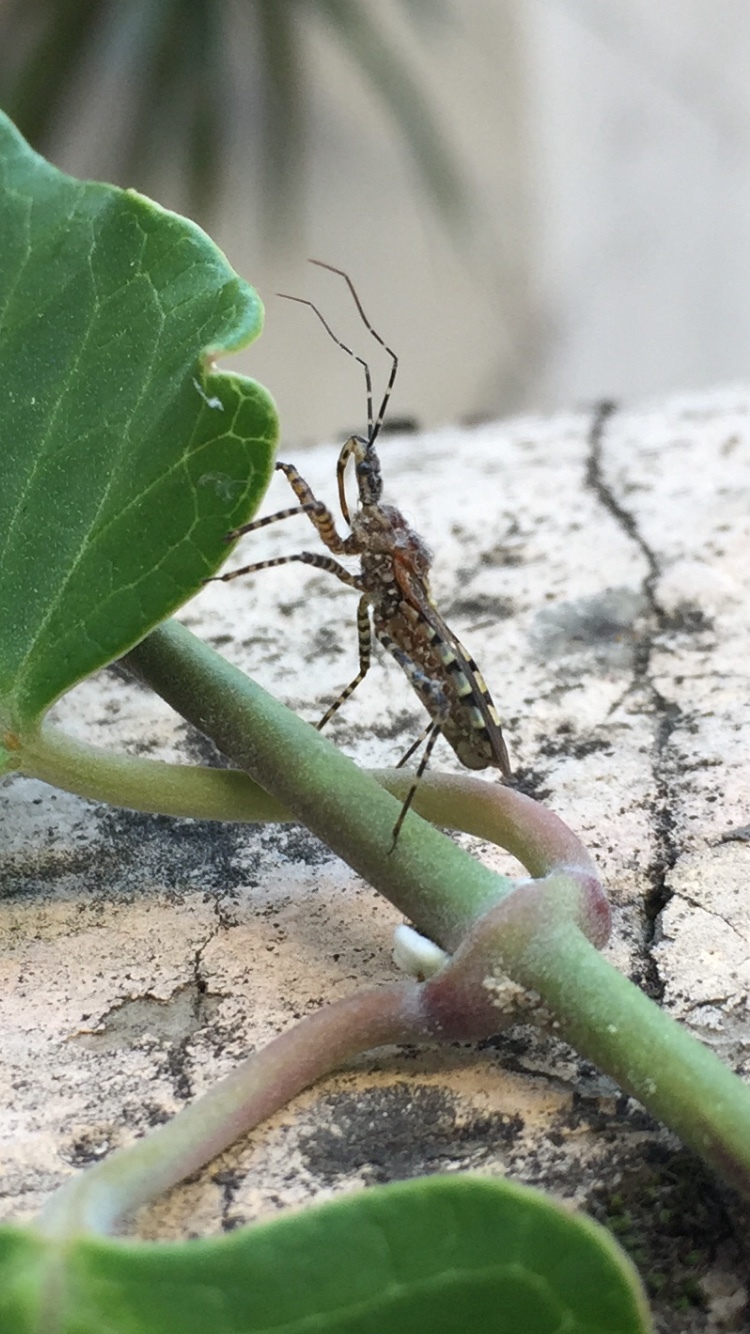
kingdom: Animalia
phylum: Arthropoda
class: Insecta
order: Hemiptera
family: Reduviidae
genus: Cosmoclopius
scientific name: Cosmoclopius nigroannulatus
